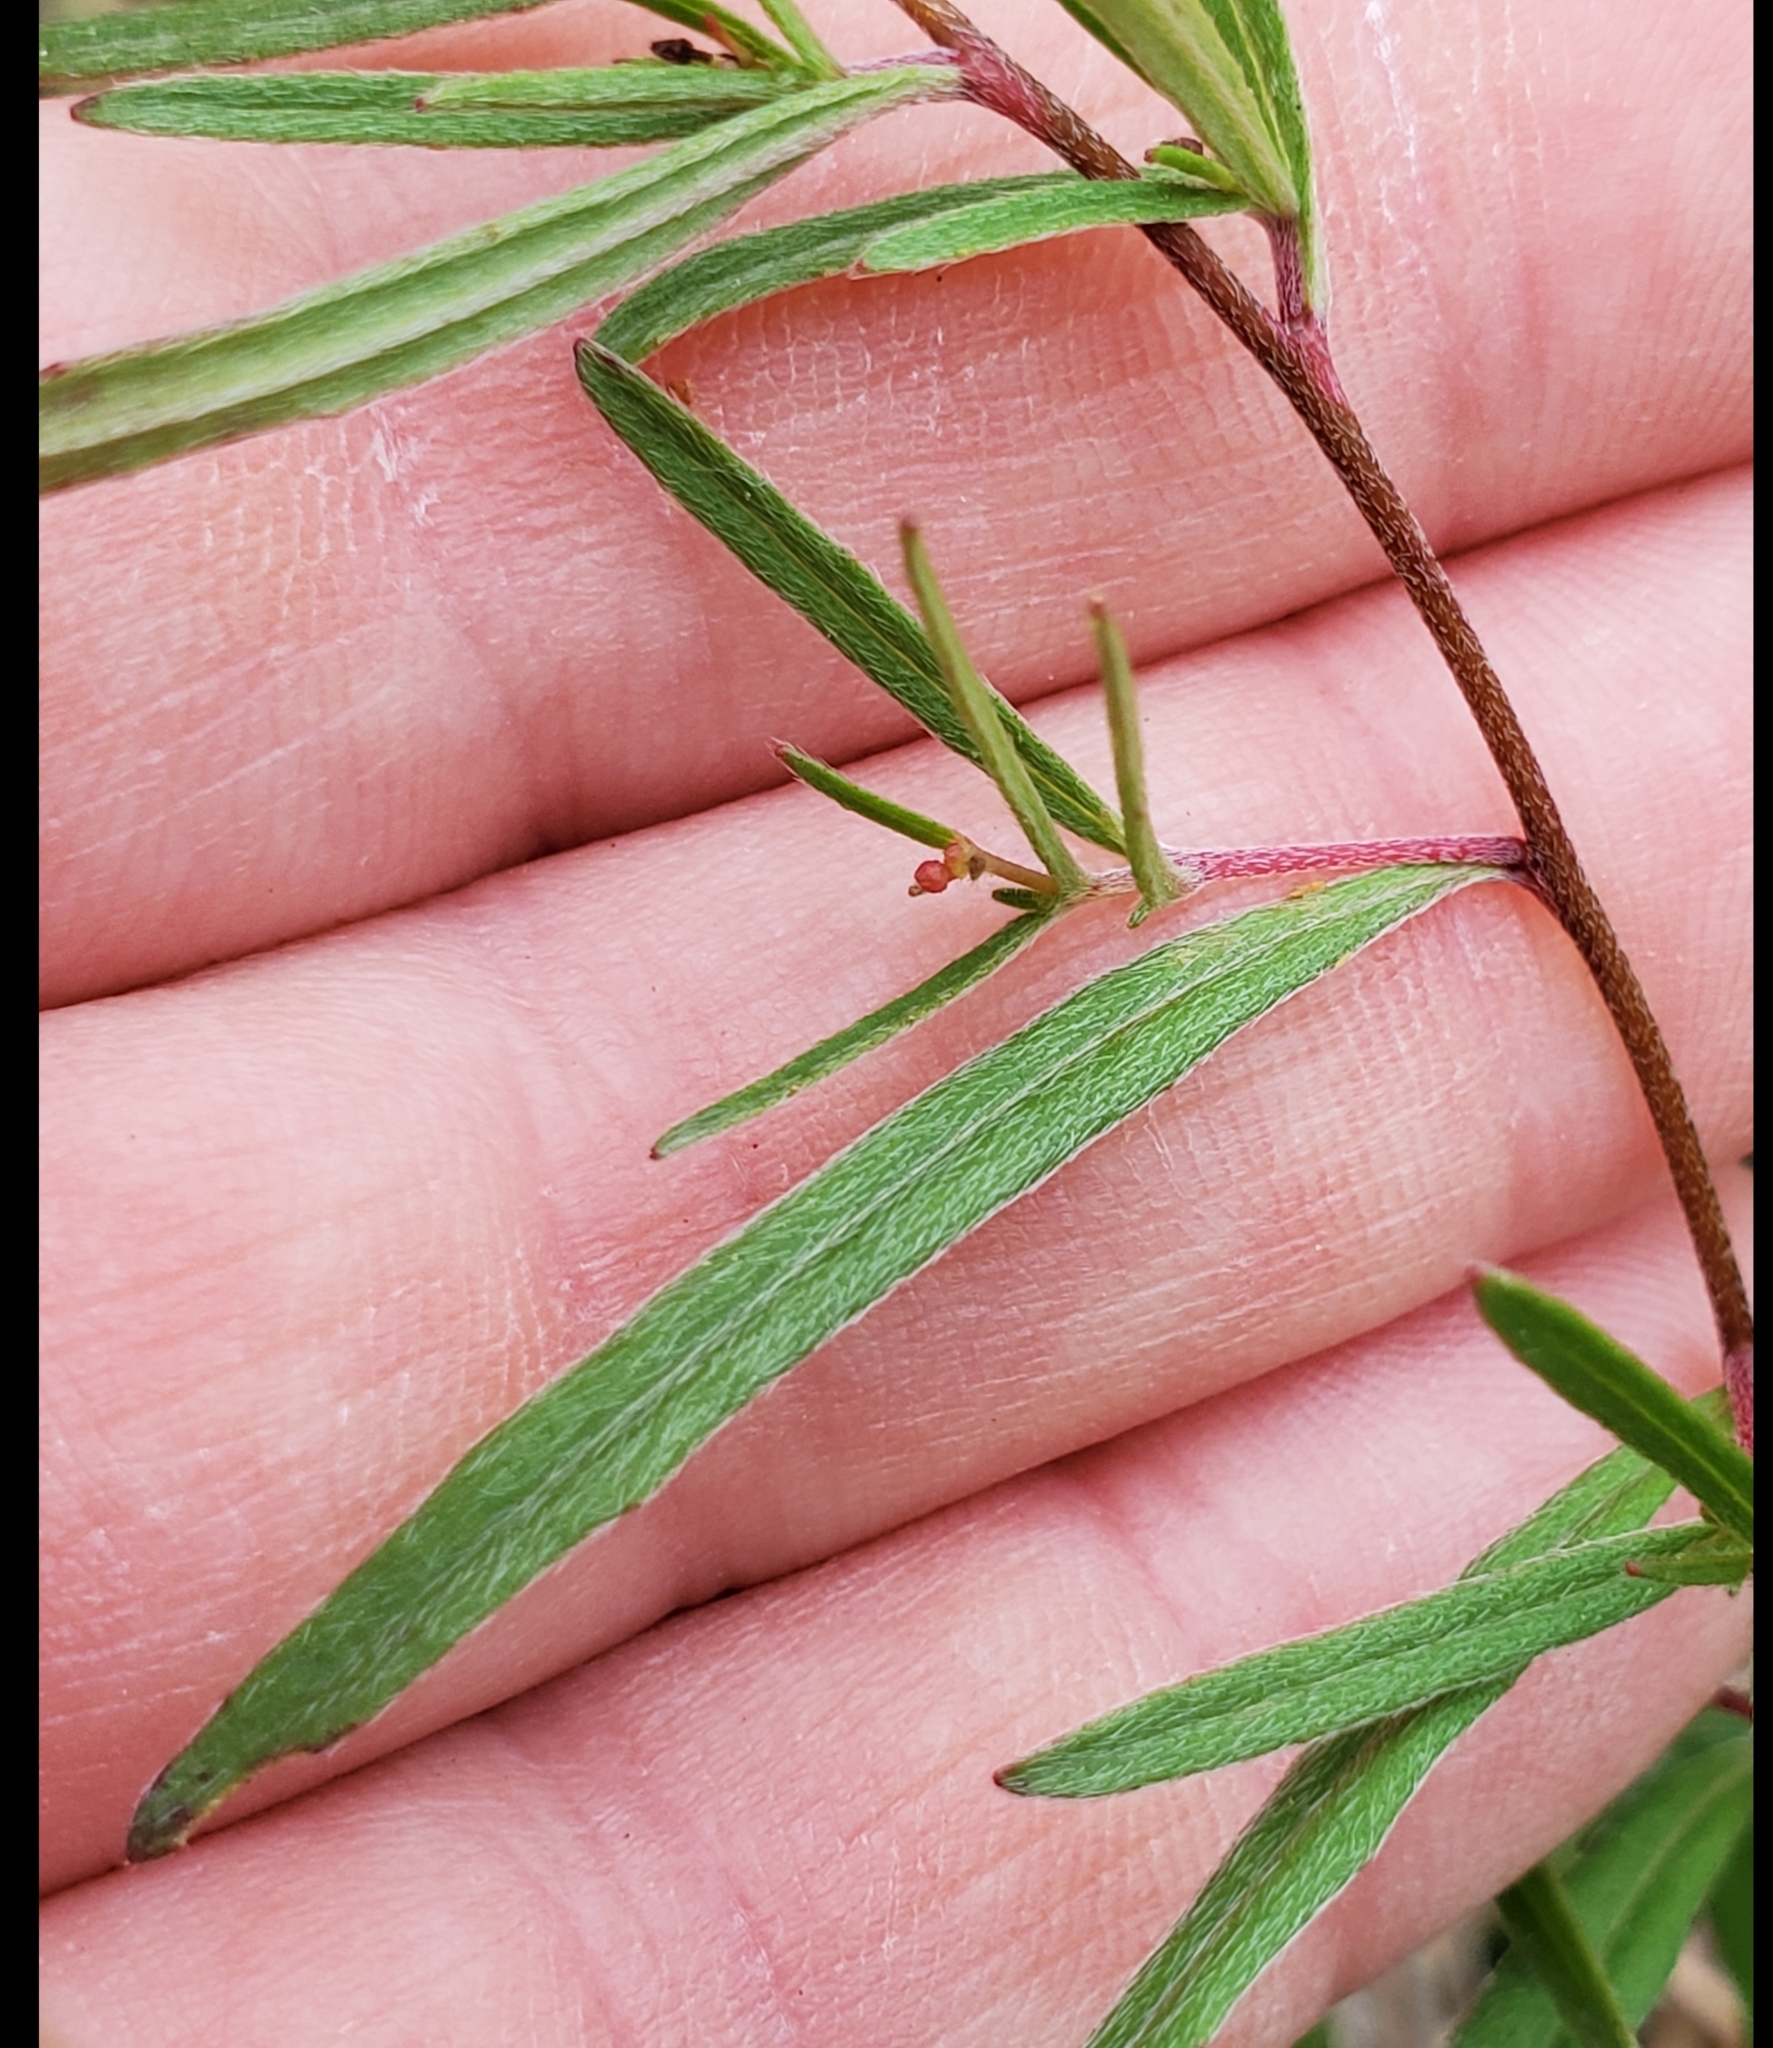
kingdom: Plantae
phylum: Tracheophyta
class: Magnoliopsida
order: Myrtales
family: Onagraceae
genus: Oenothera
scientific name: Oenothera fruticosa
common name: Southern sundrops
